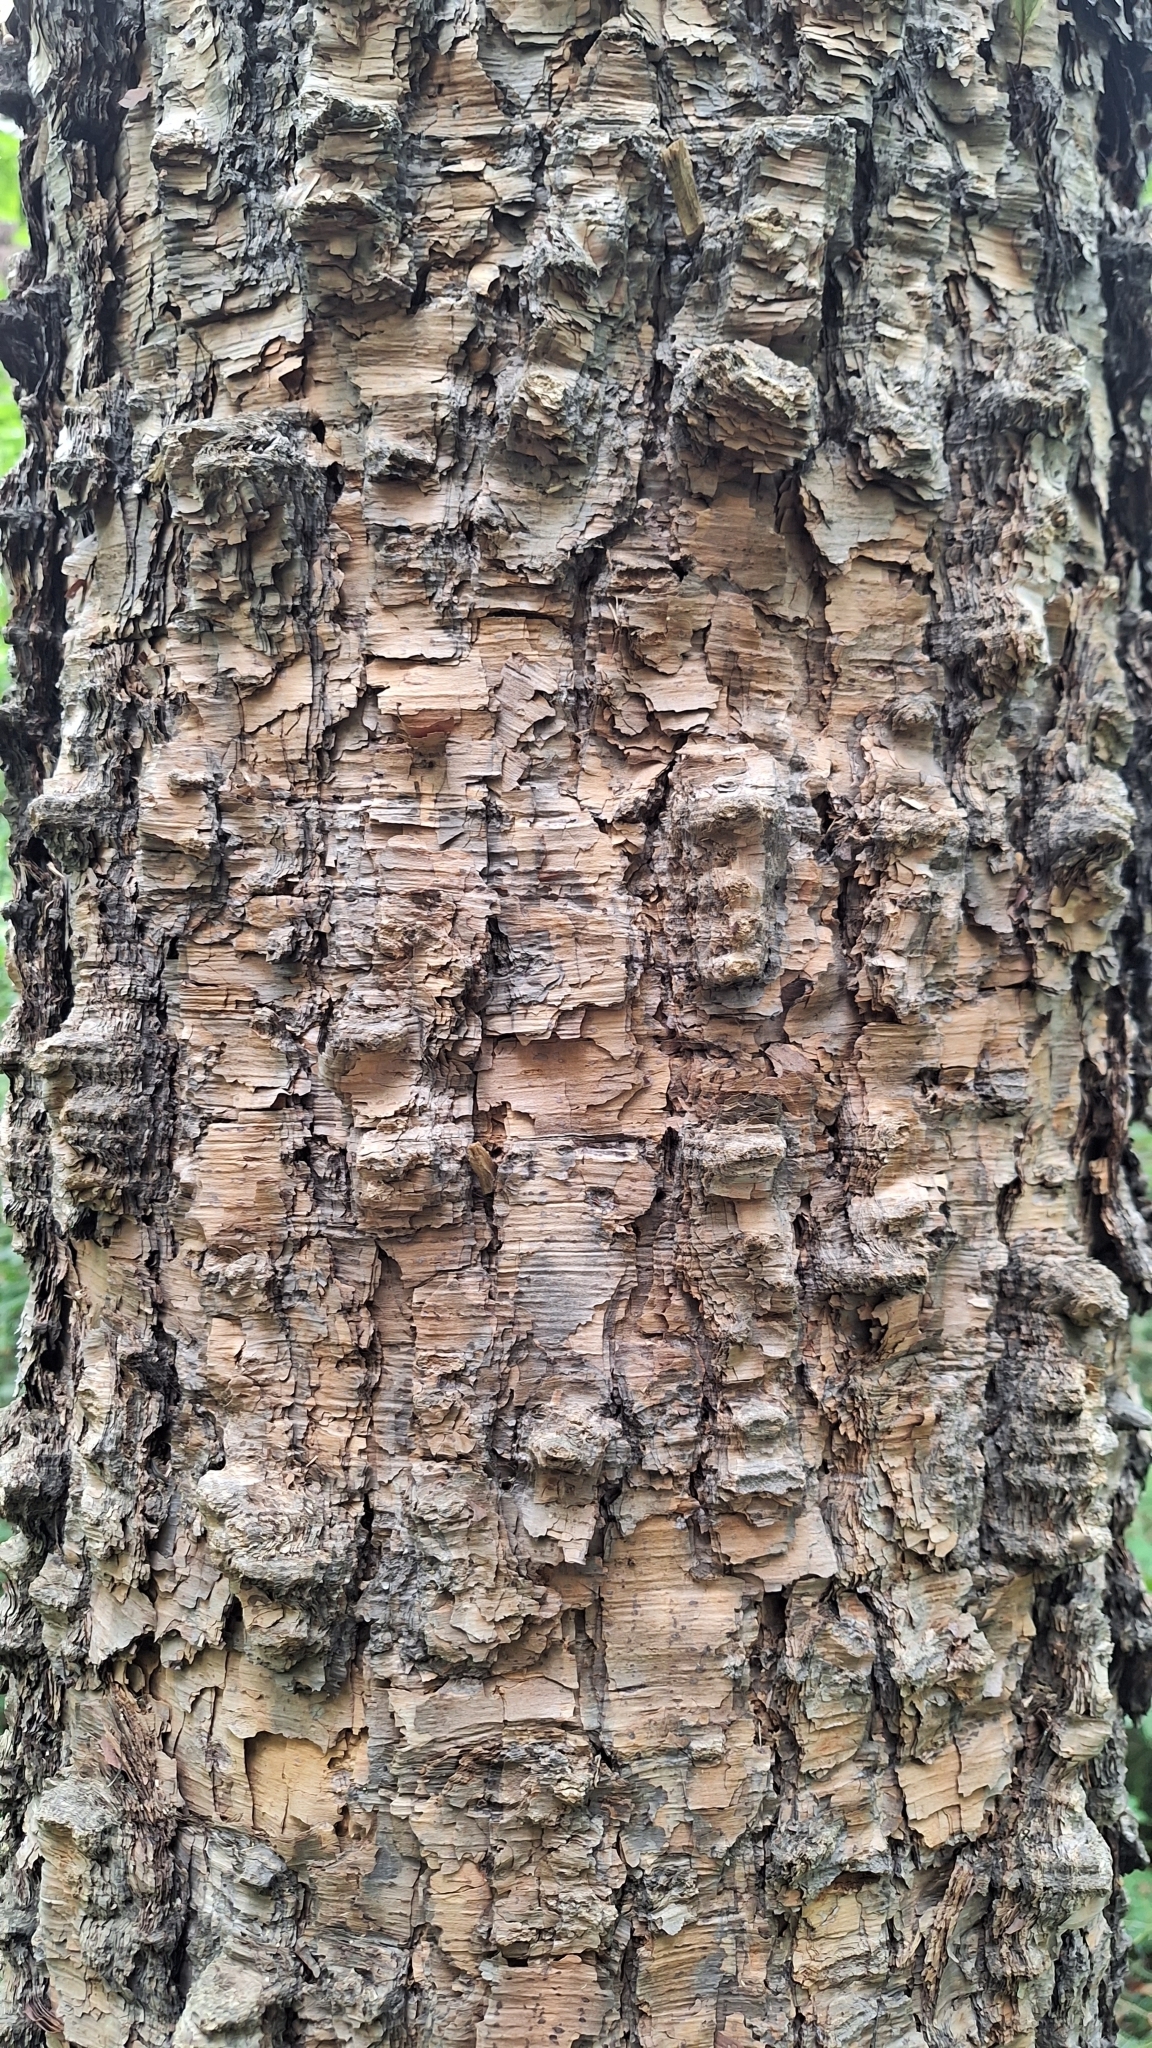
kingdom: Plantae
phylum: Tracheophyta
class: Magnoliopsida
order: Fagales
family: Betulaceae
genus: Betula
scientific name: Betula dauurica
